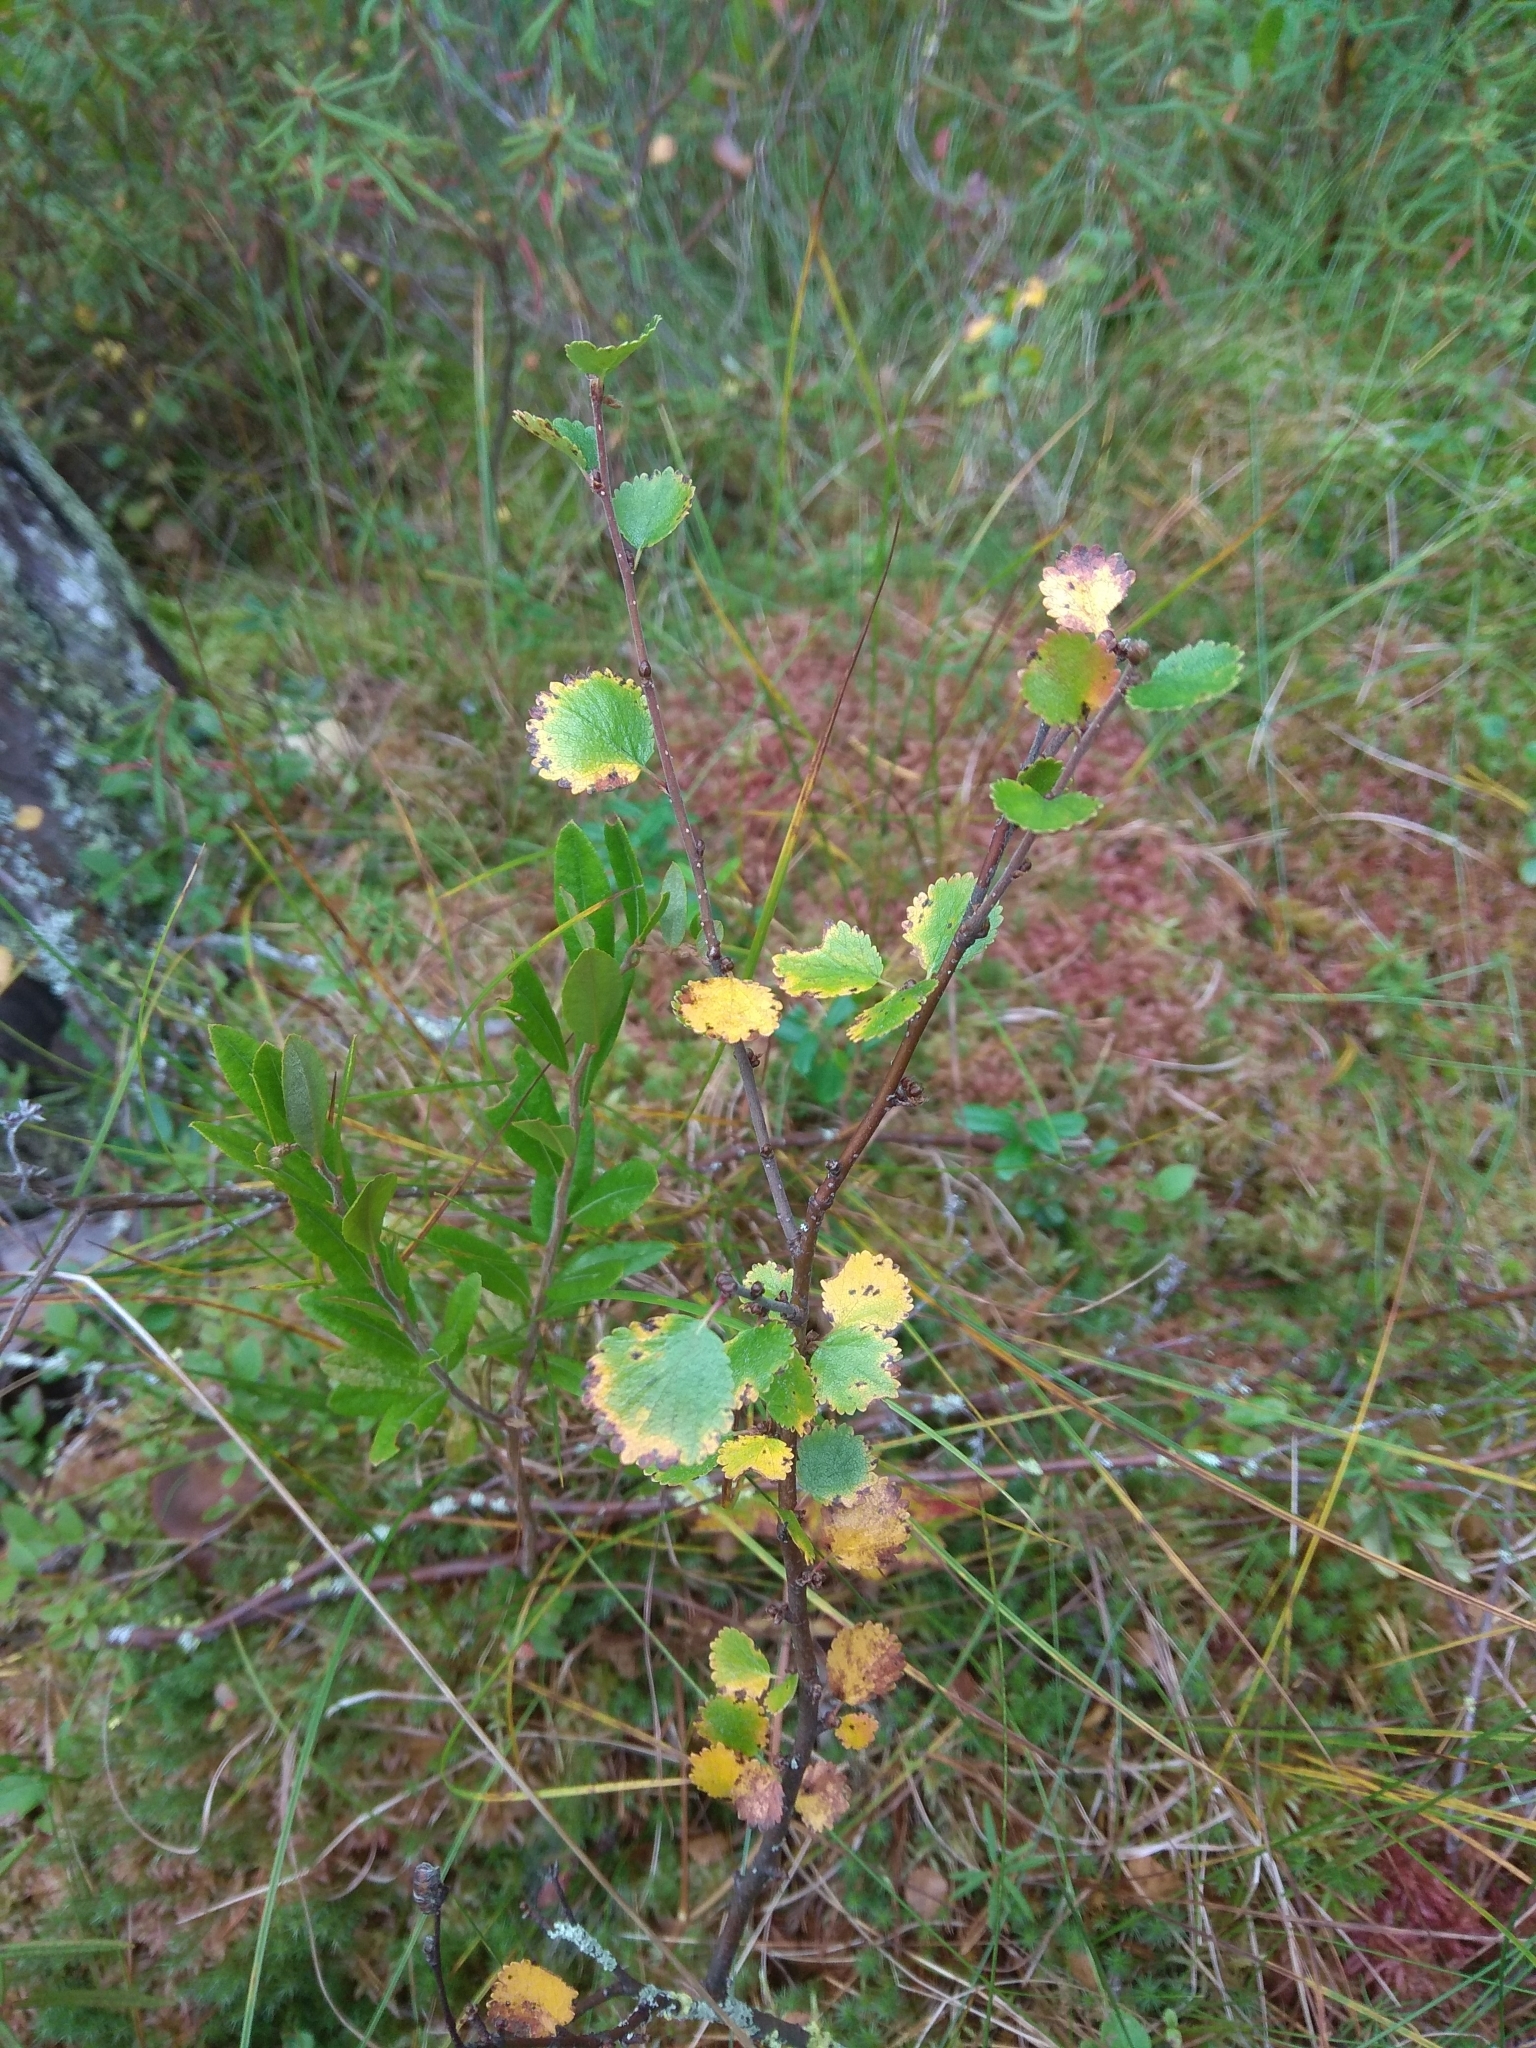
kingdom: Plantae
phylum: Tracheophyta
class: Magnoliopsida
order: Fagales
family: Betulaceae
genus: Betula
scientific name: Betula nana
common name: Arctic dwarf birch
